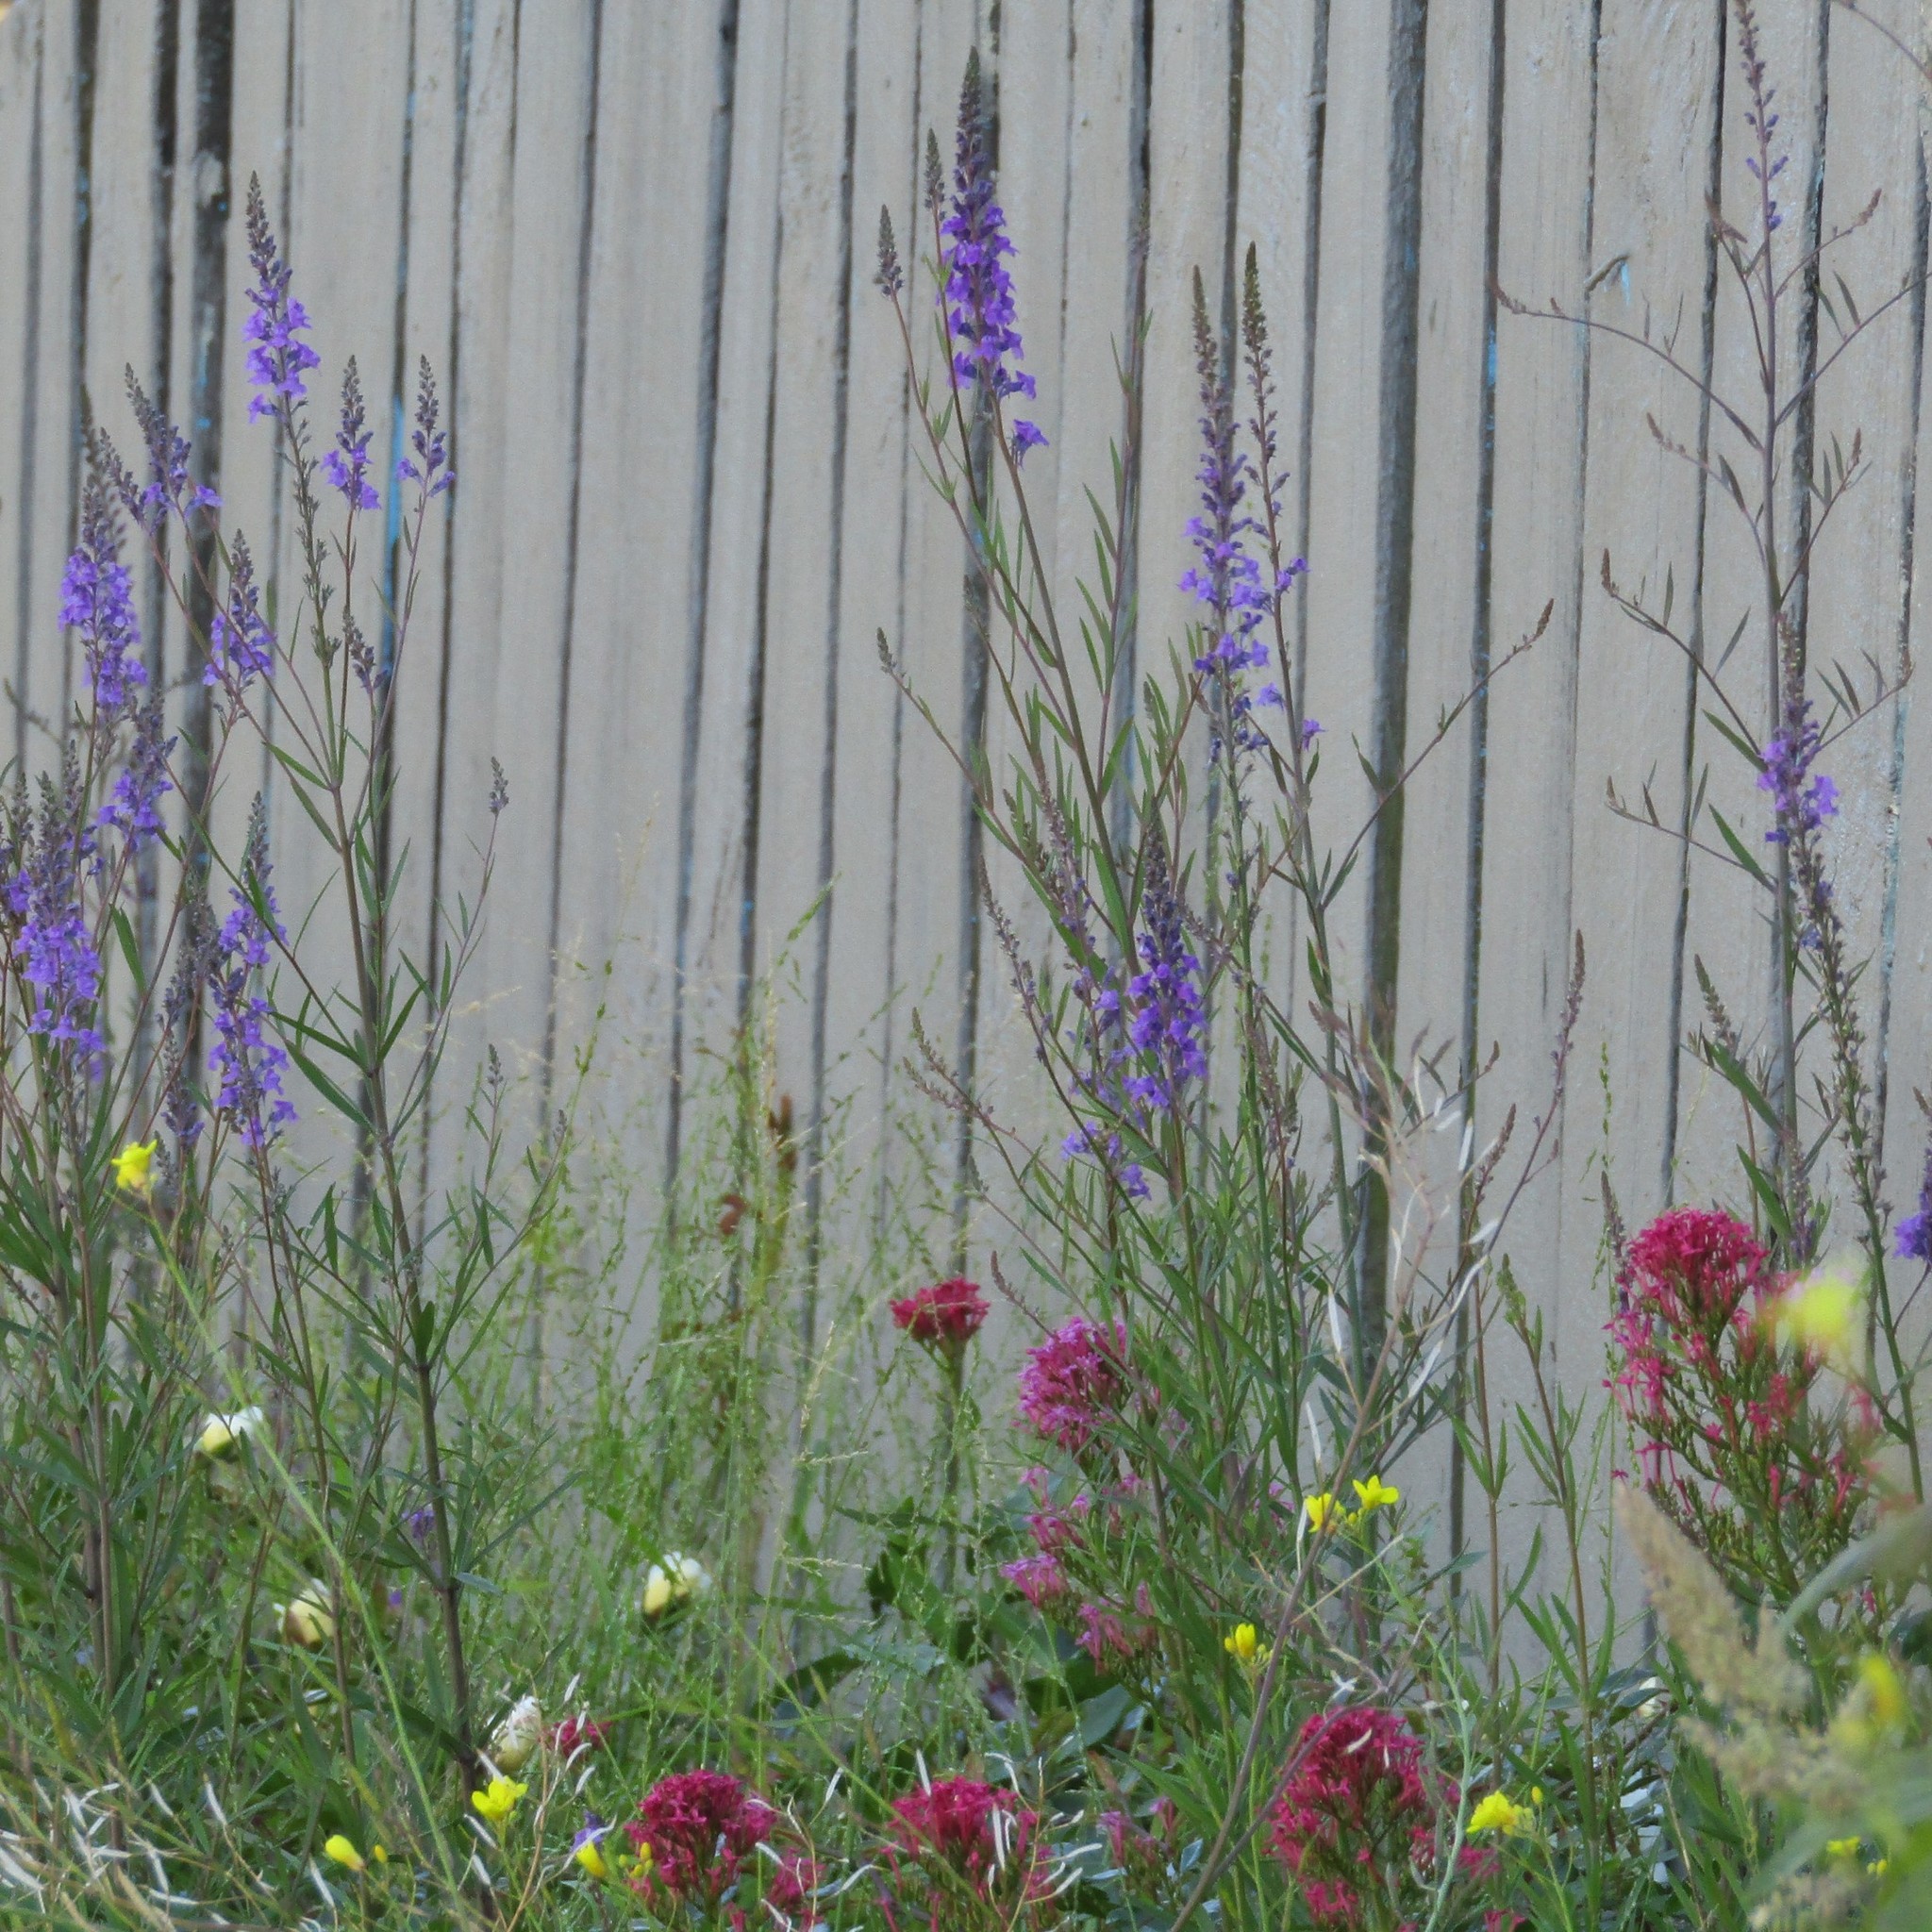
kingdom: Plantae
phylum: Tracheophyta
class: Magnoliopsida
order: Lamiales
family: Plantaginaceae
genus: Linaria
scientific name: Linaria purpurea
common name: Purple toadflax
